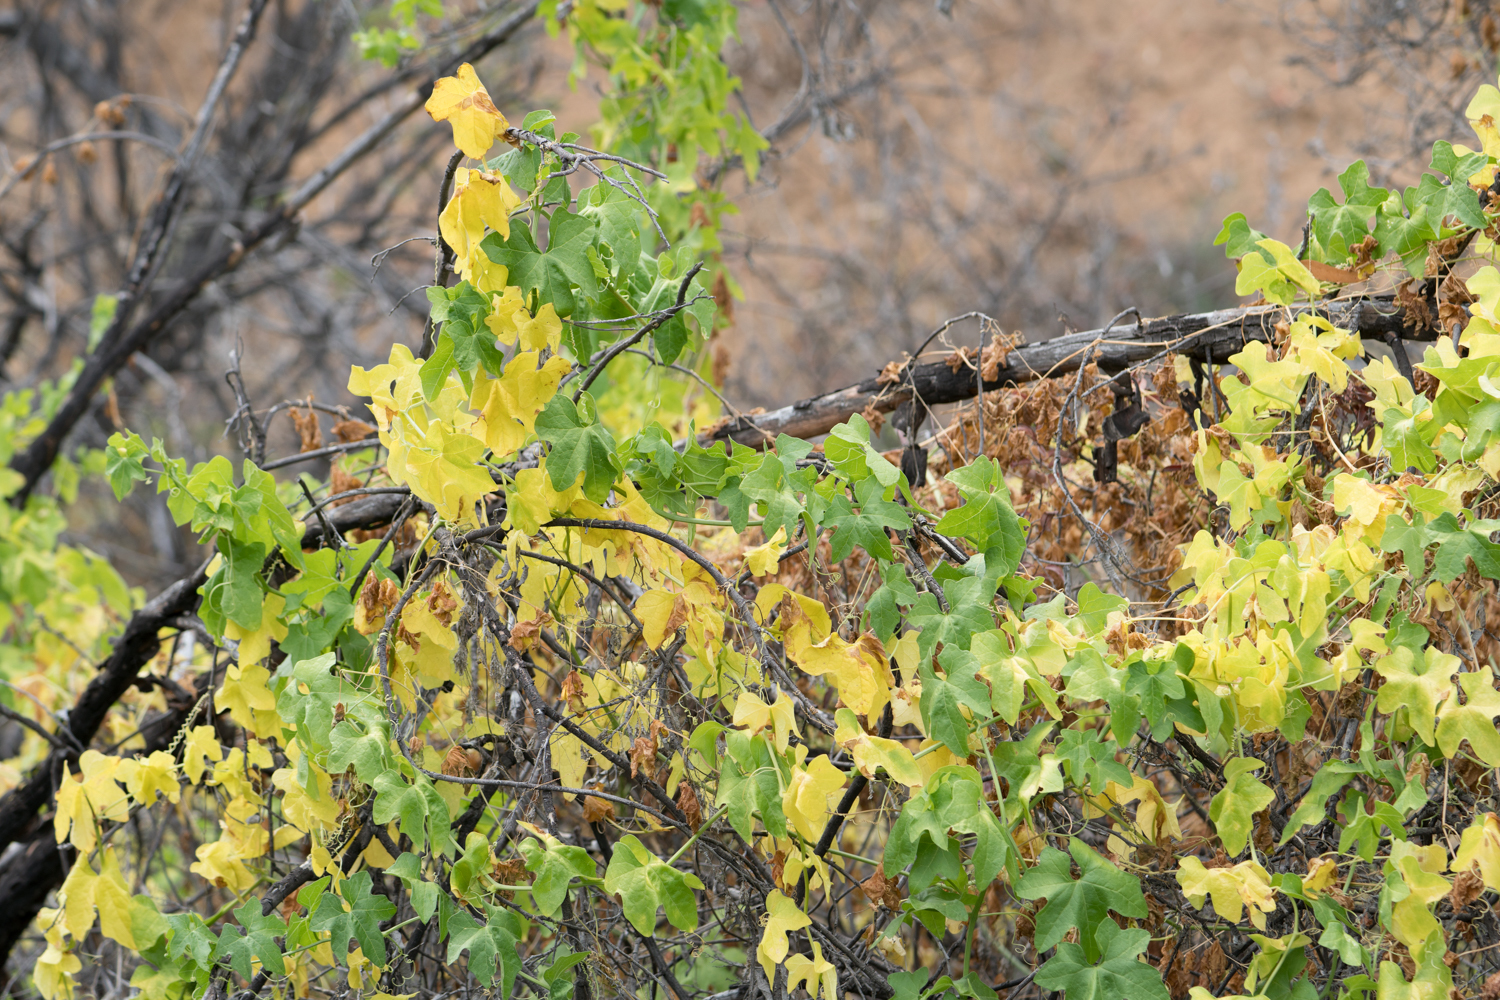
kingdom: Plantae
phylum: Tracheophyta
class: Magnoliopsida
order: Cucurbitales
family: Cucurbitaceae
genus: Marah
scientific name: Marah macrocarpa
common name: Cucamonga manroot
